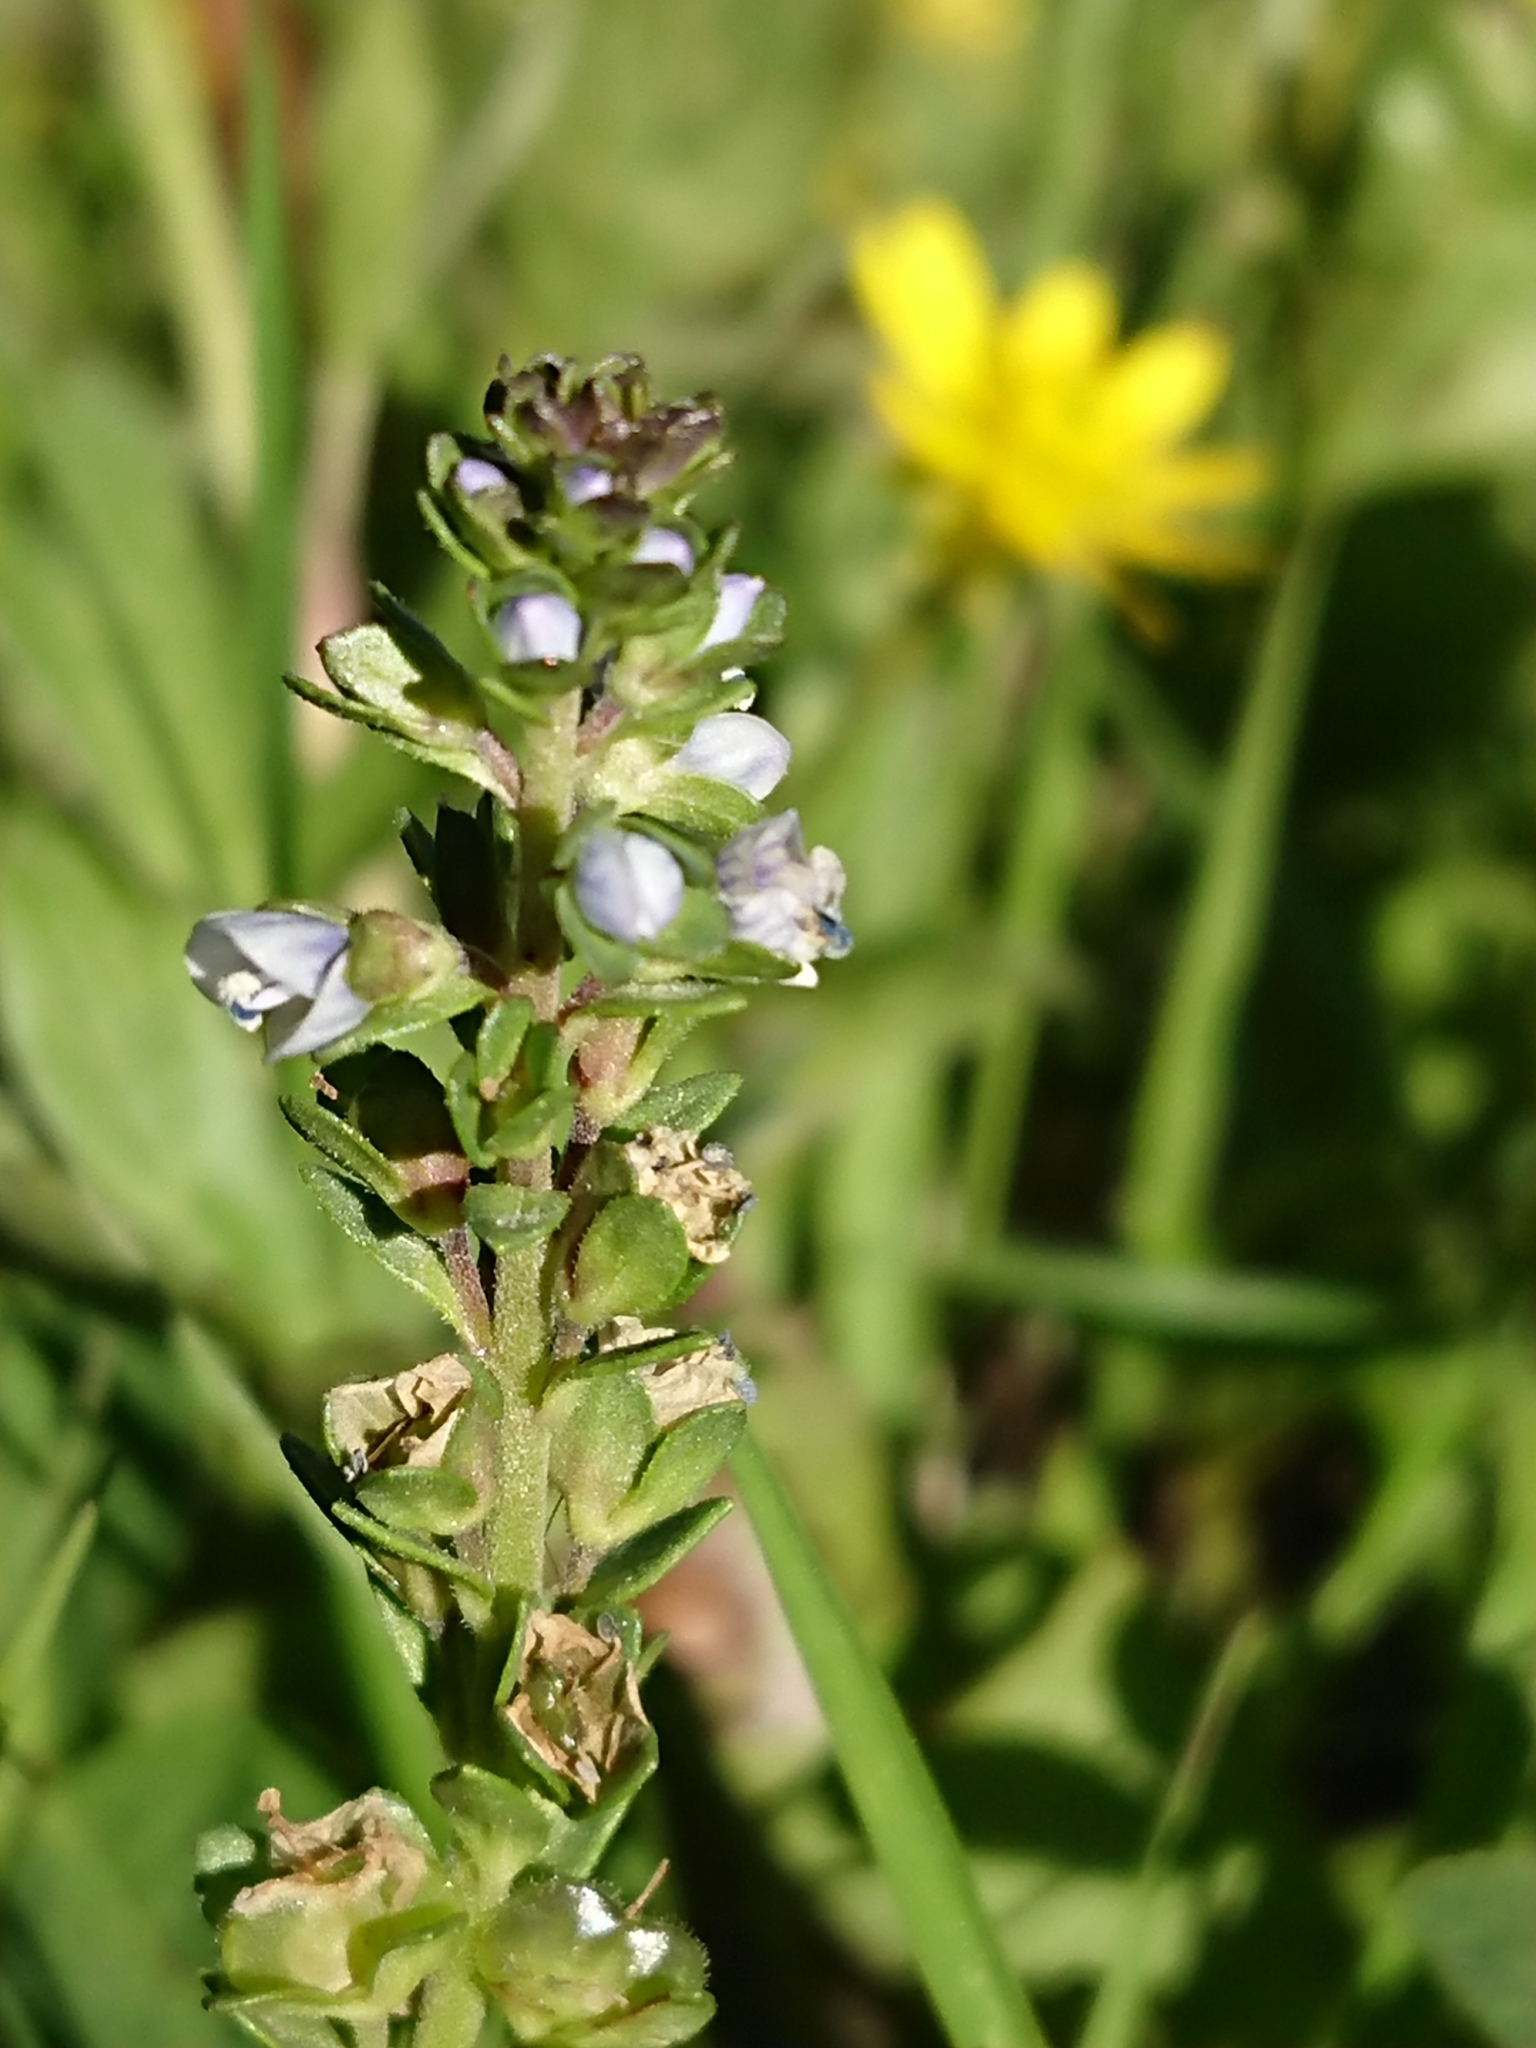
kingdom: Plantae
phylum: Tracheophyta
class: Magnoliopsida
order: Lamiales
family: Plantaginaceae
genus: Veronica
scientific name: Veronica serpyllifolia
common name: Thyme-leaved speedwell
